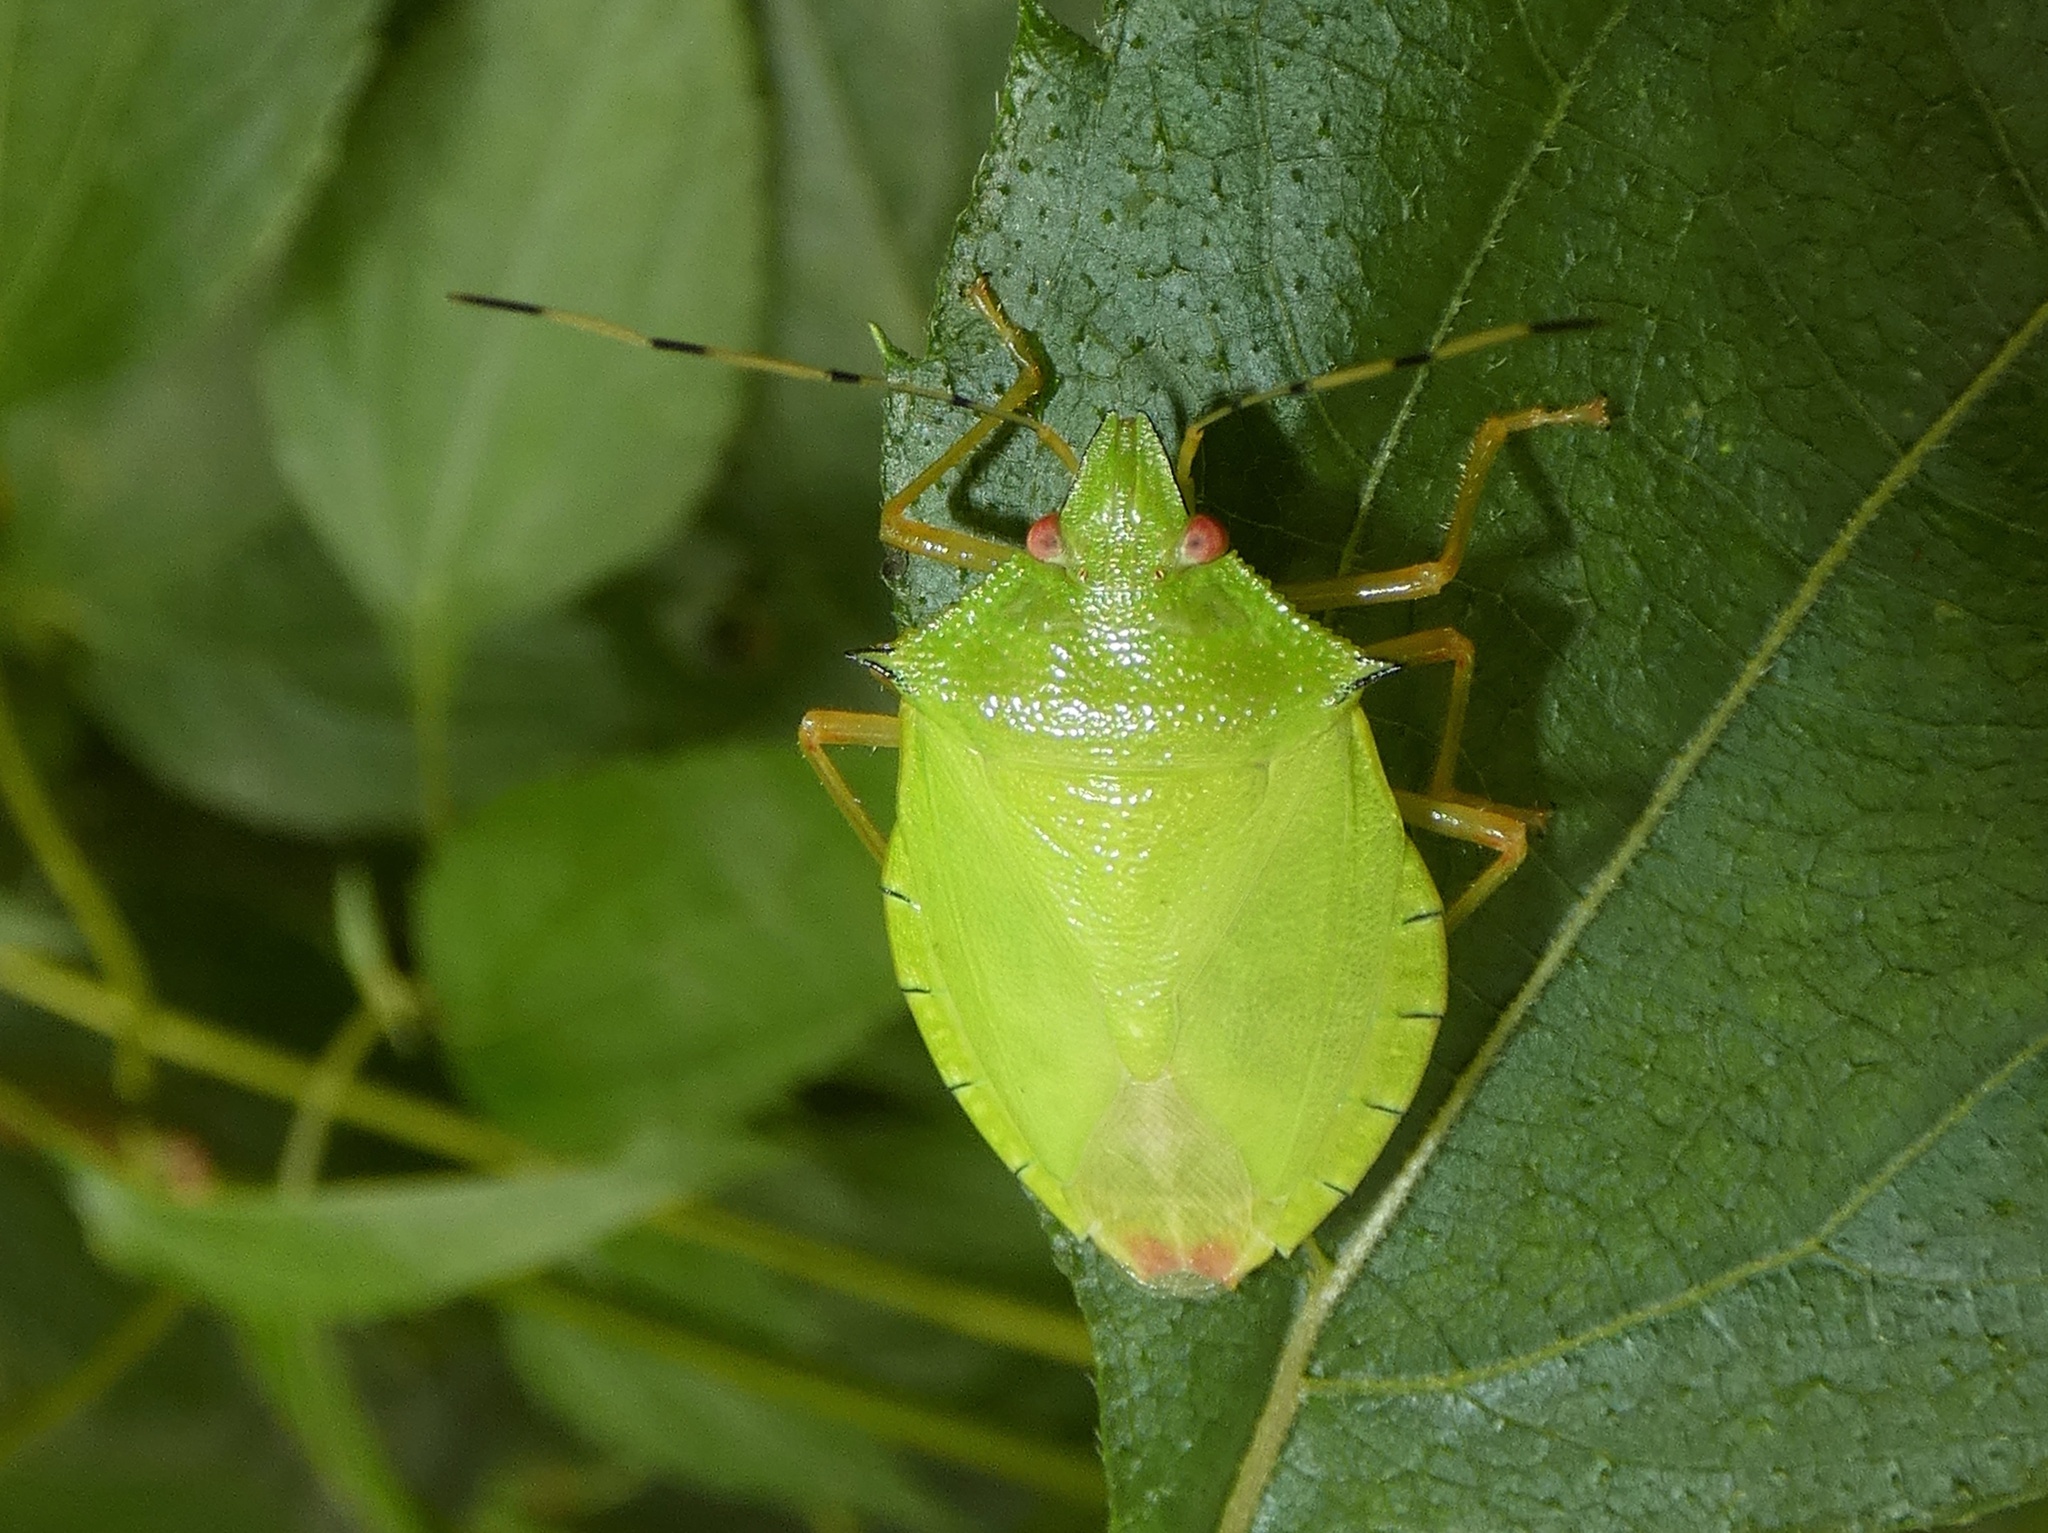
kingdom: Animalia
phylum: Arthropoda
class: Insecta
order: Hemiptera
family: Pentatomidae
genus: Chlorocoris
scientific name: Chlorocoris
